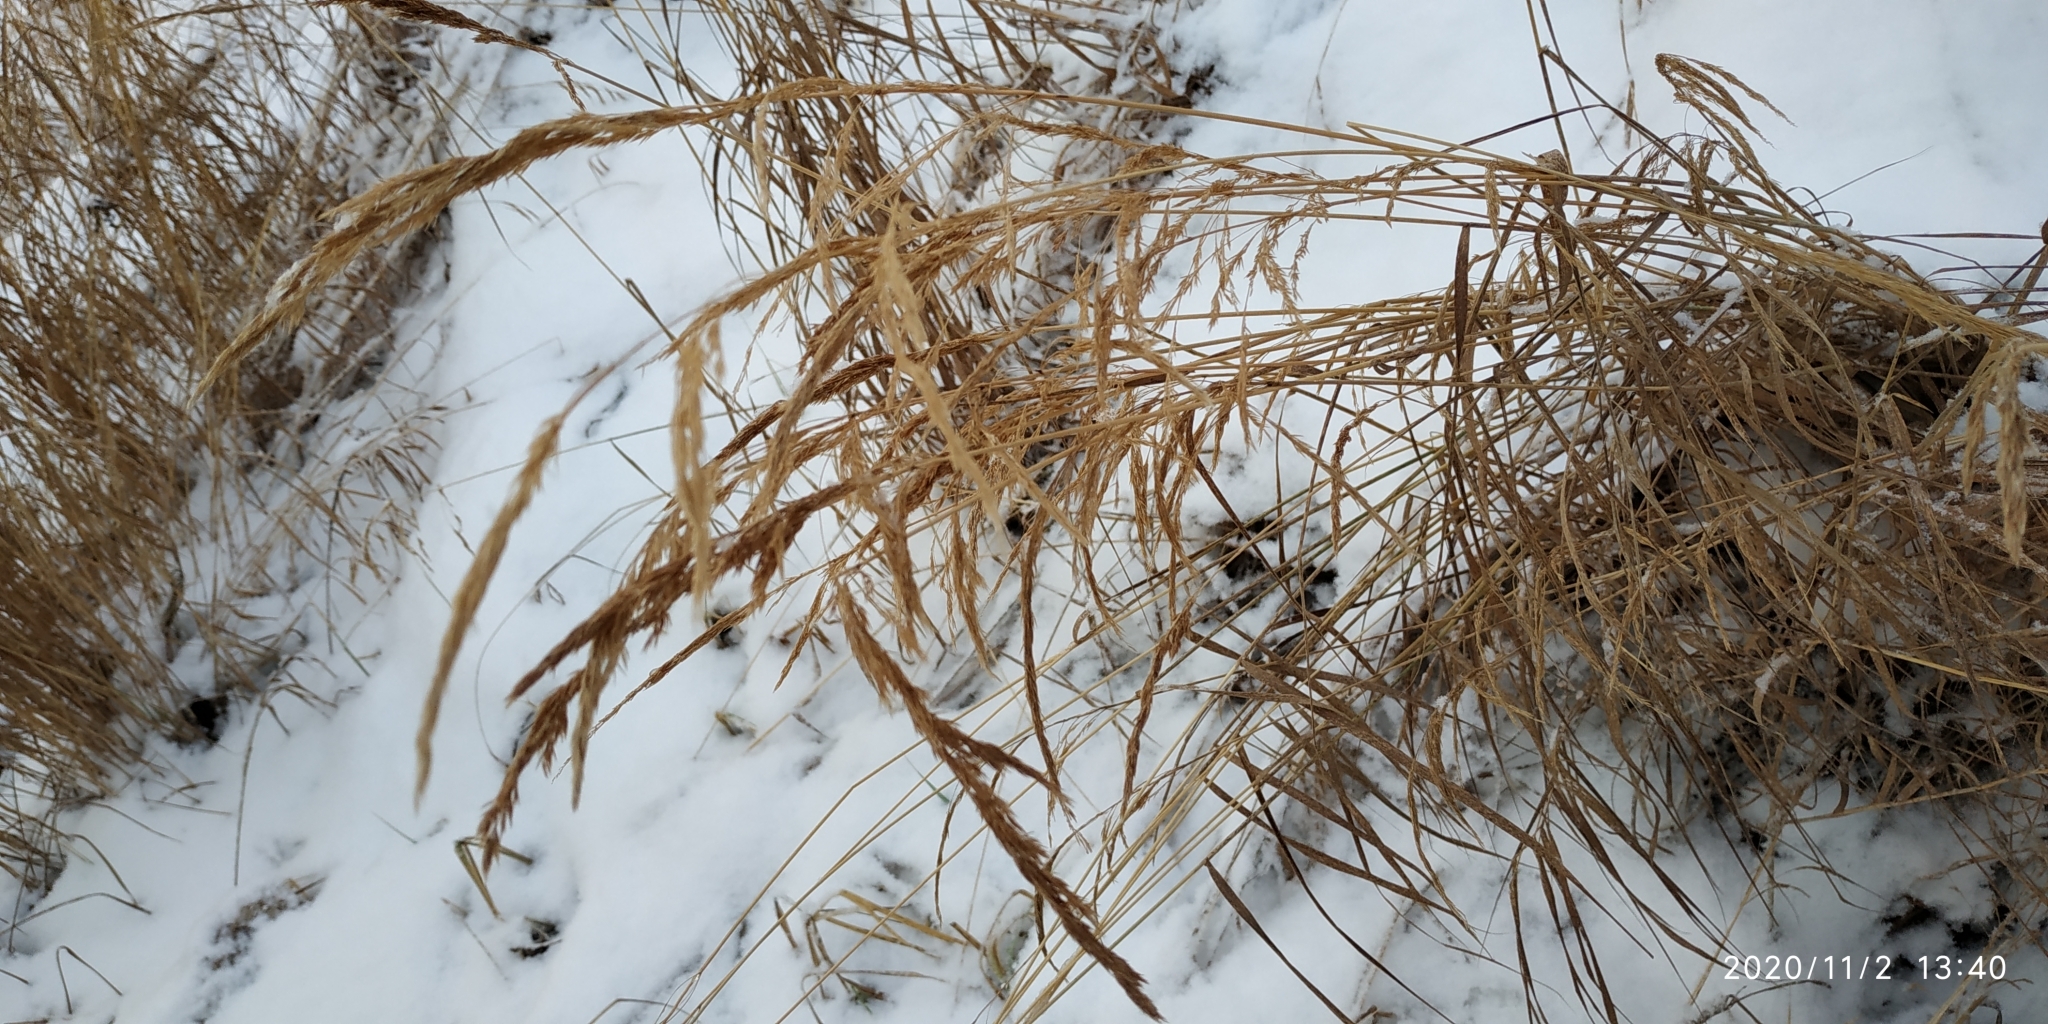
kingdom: Plantae
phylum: Tracheophyta
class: Liliopsida
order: Poales
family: Poaceae
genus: Calamagrostis
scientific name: Calamagrostis purpurea
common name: Scandinavian small-reed
